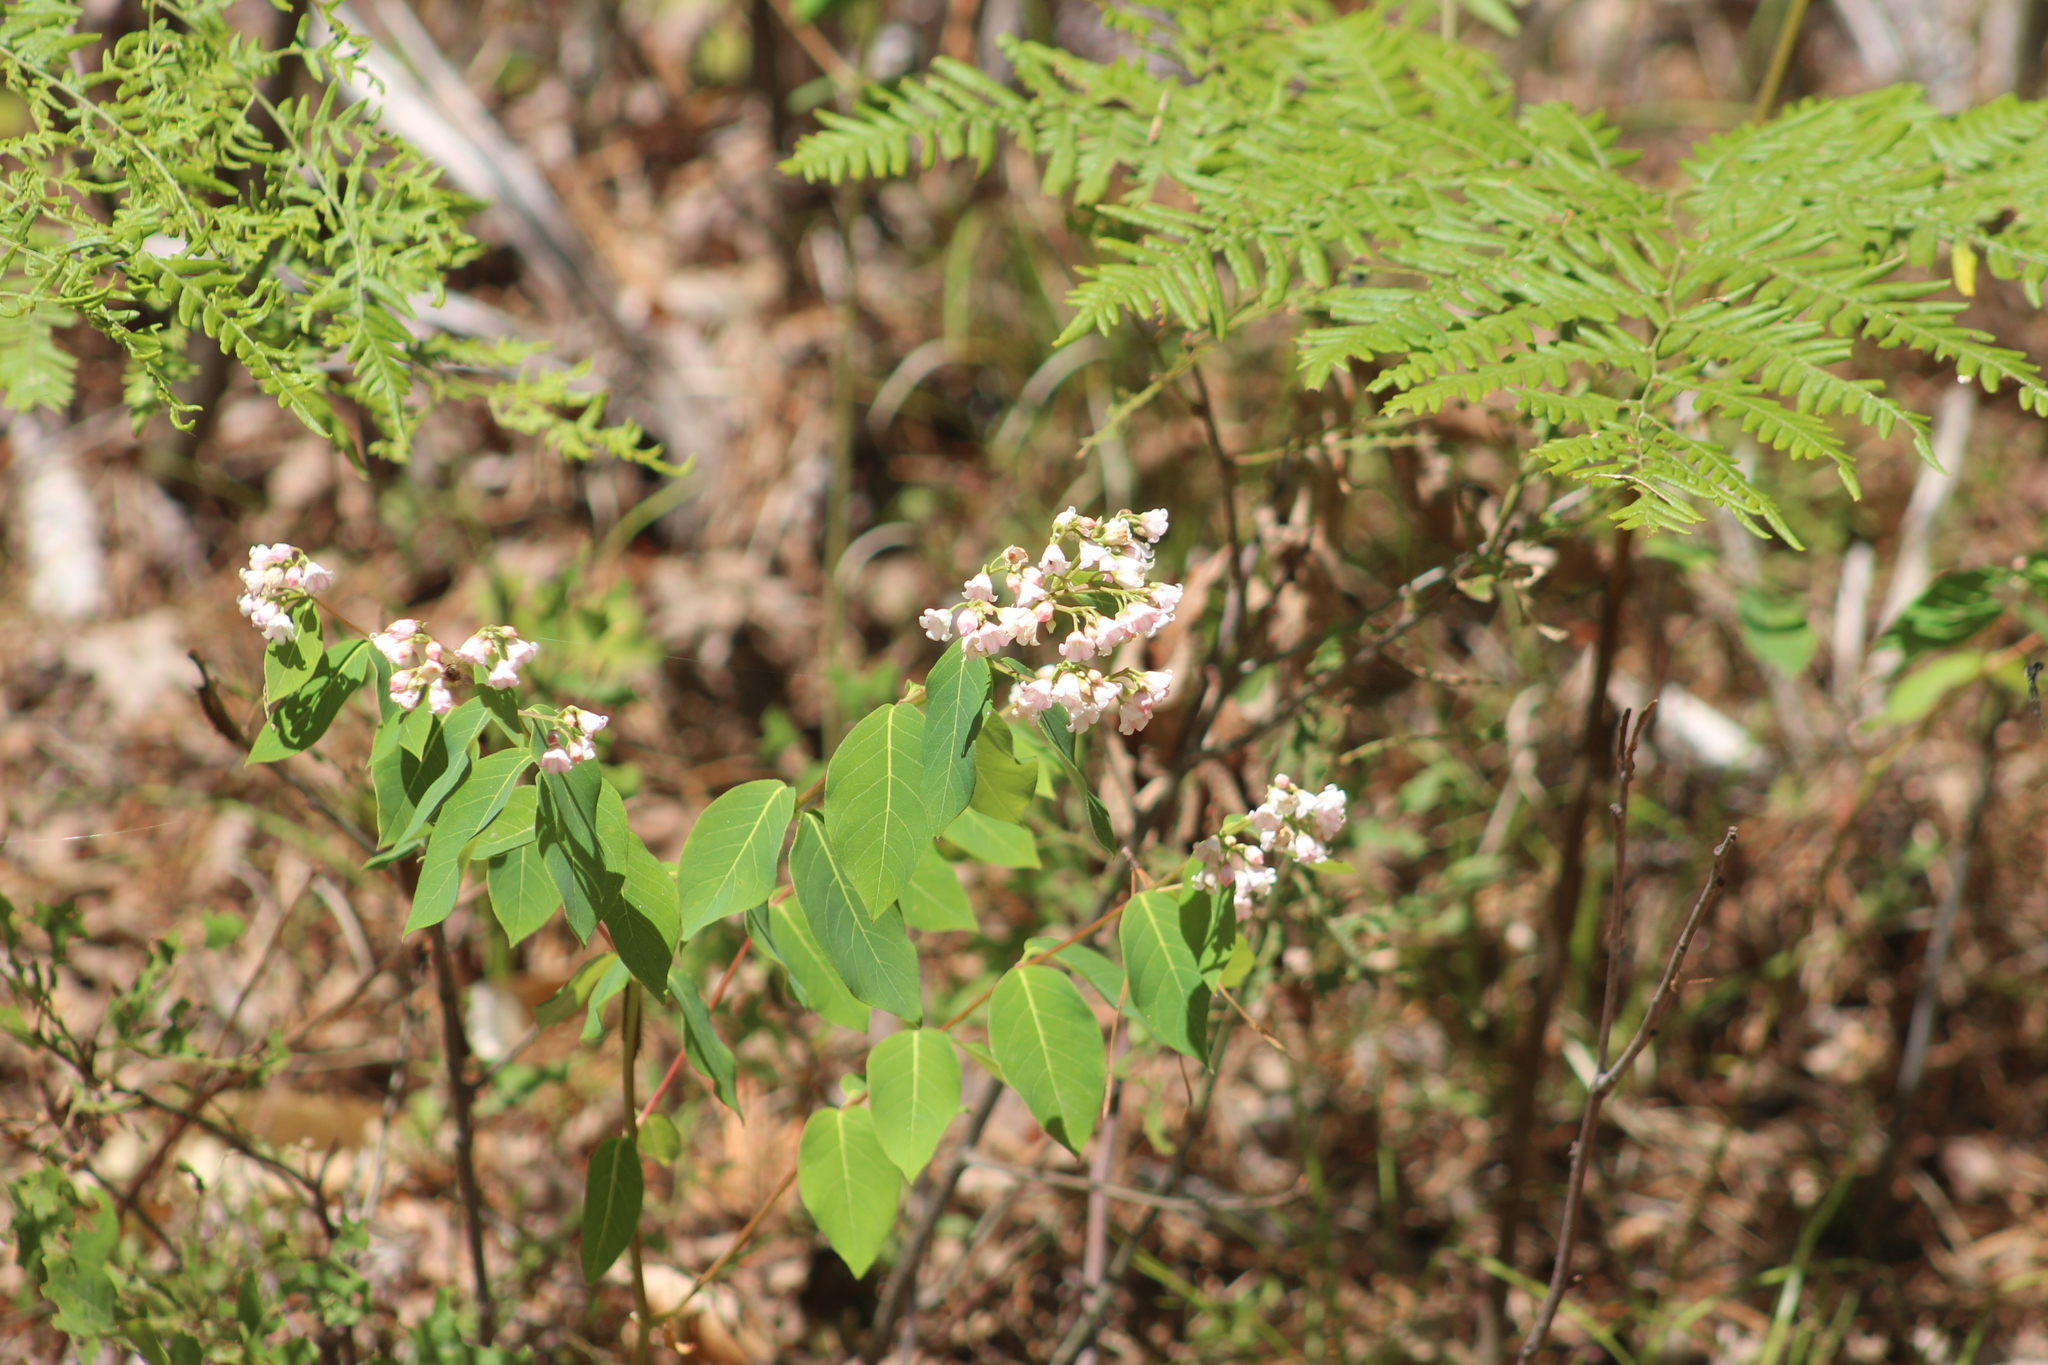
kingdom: Plantae
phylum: Tracheophyta
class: Magnoliopsida
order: Gentianales
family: Apocynaceae
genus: Apocynum
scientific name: Apocynum androsaemifolium
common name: Spreading dogbane
